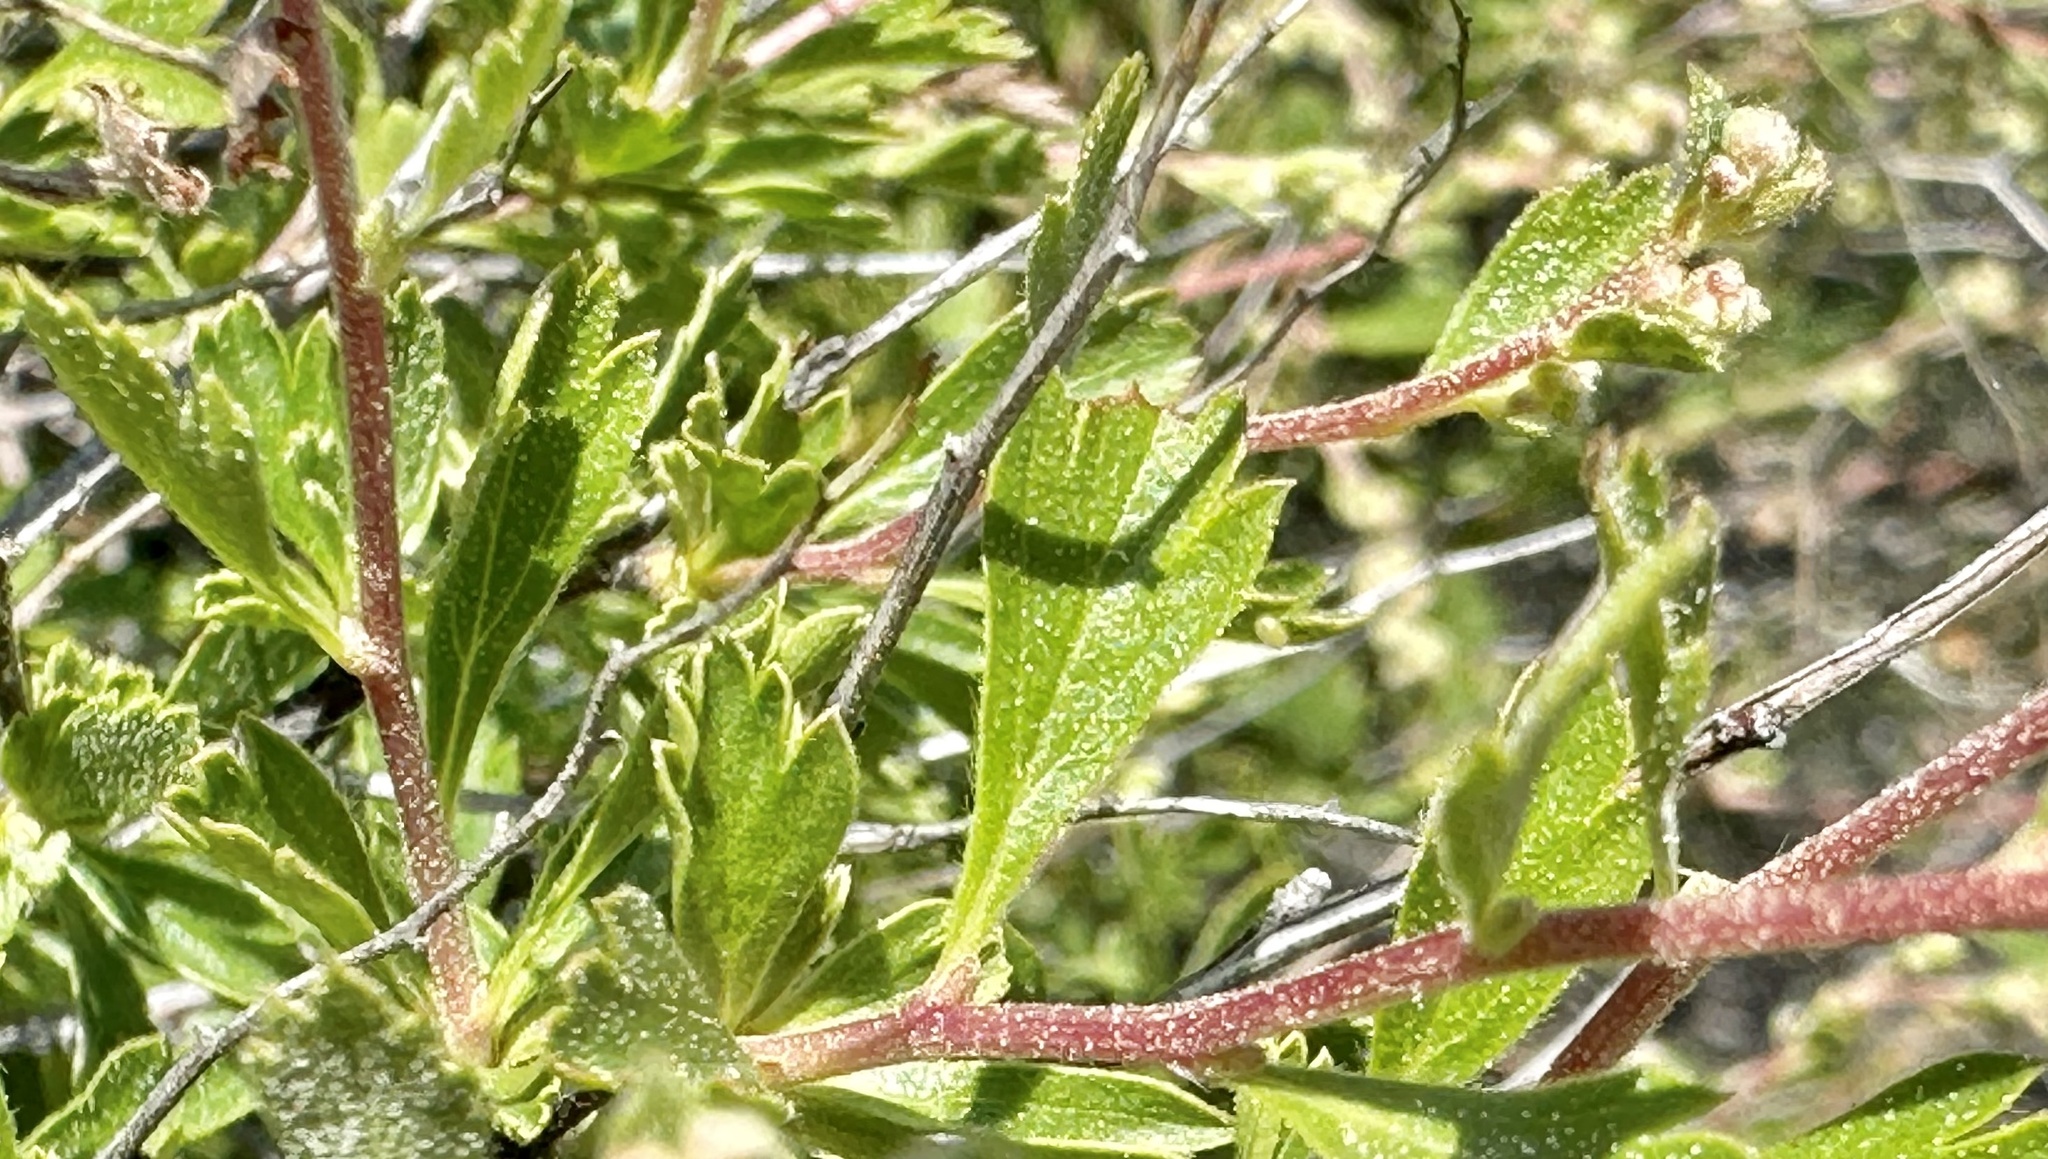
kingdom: Plantae
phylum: Tracheophyta
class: Magnoliopsida
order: Rosales
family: Rosaceae
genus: Holodiscus
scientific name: Holodiscus discolor
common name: Oceanspray
